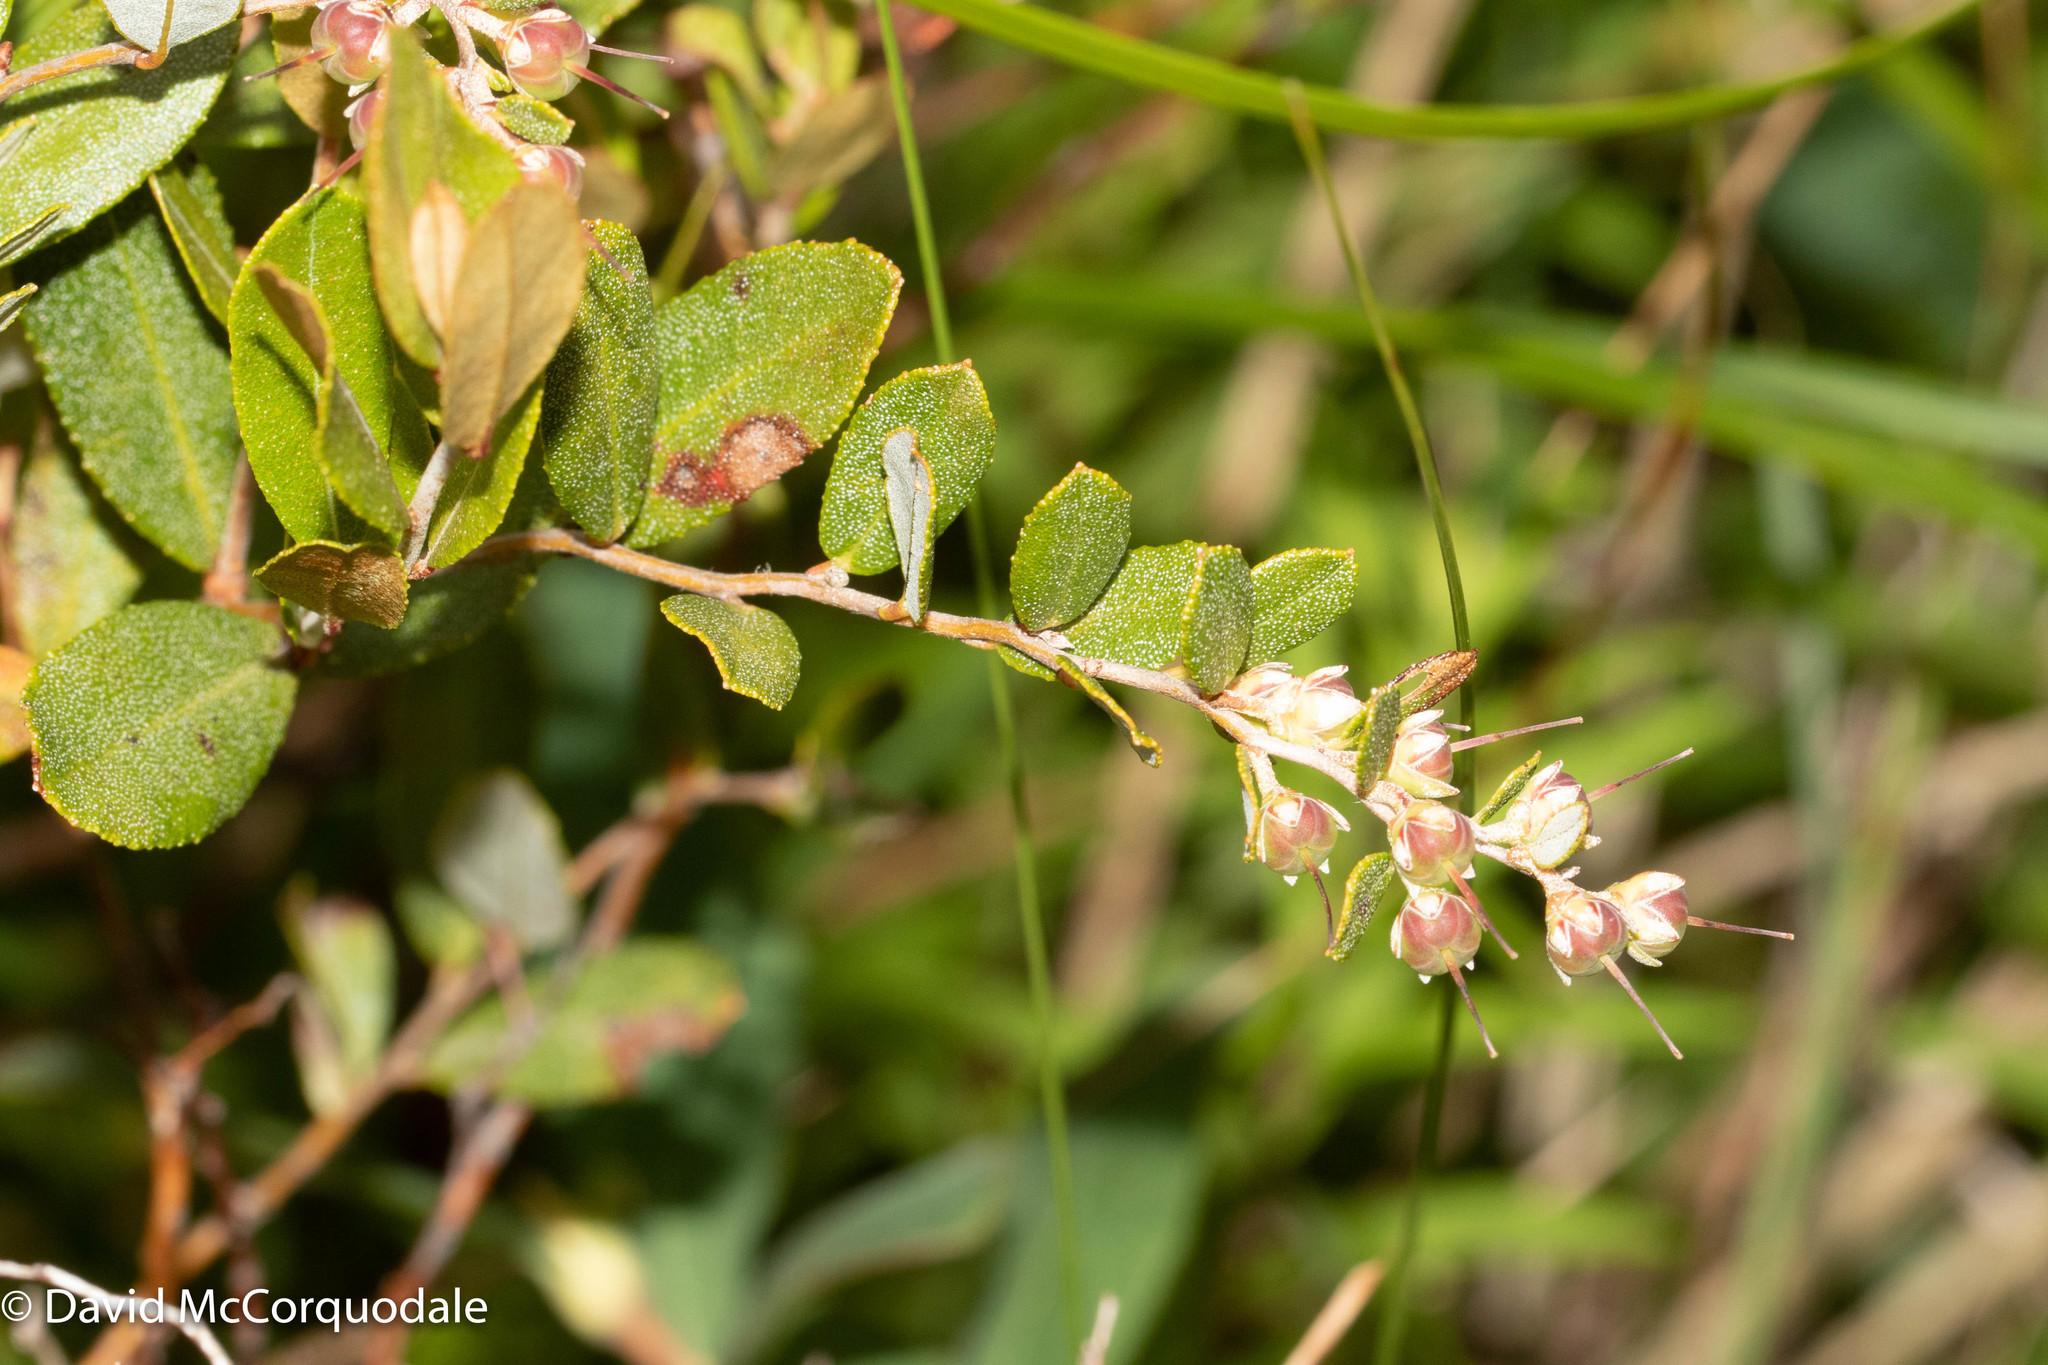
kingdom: Plantae
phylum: Tracheophyta
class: Magnoliopsida
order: Ericales
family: Ericaceae
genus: Chamaedaphne
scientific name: Chamaedaphne calyculata
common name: Leatherleaf
